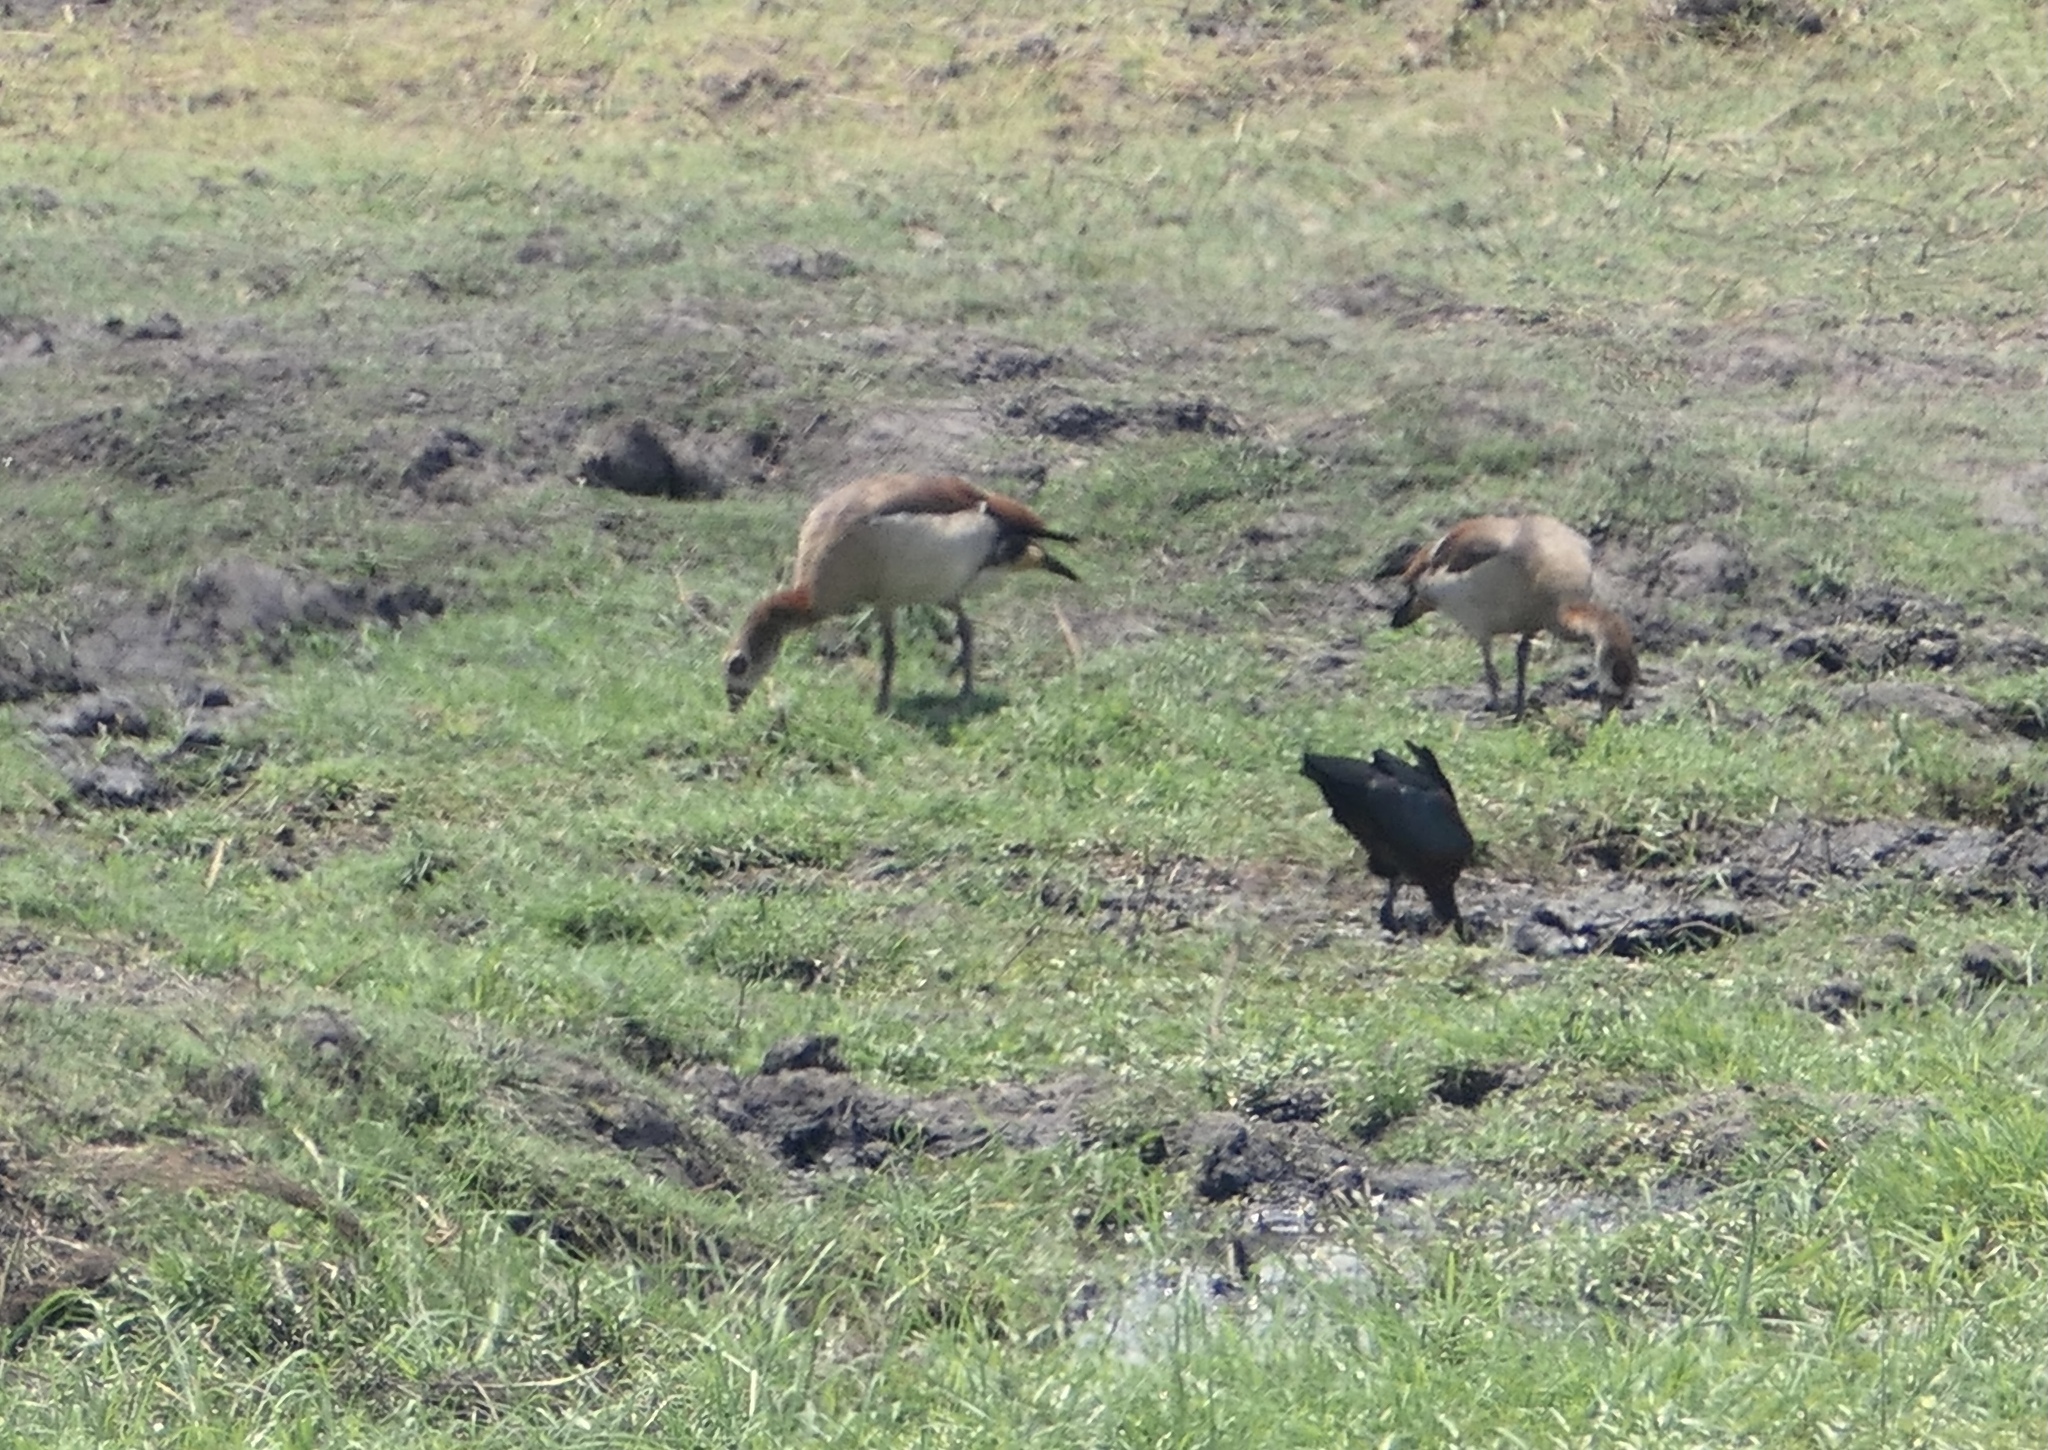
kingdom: Animalia
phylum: Chordata
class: Aves
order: Anseriformes
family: Anatidae
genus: Alopochen
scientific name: Alopochen aegyptiaca
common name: Egyptian goose
